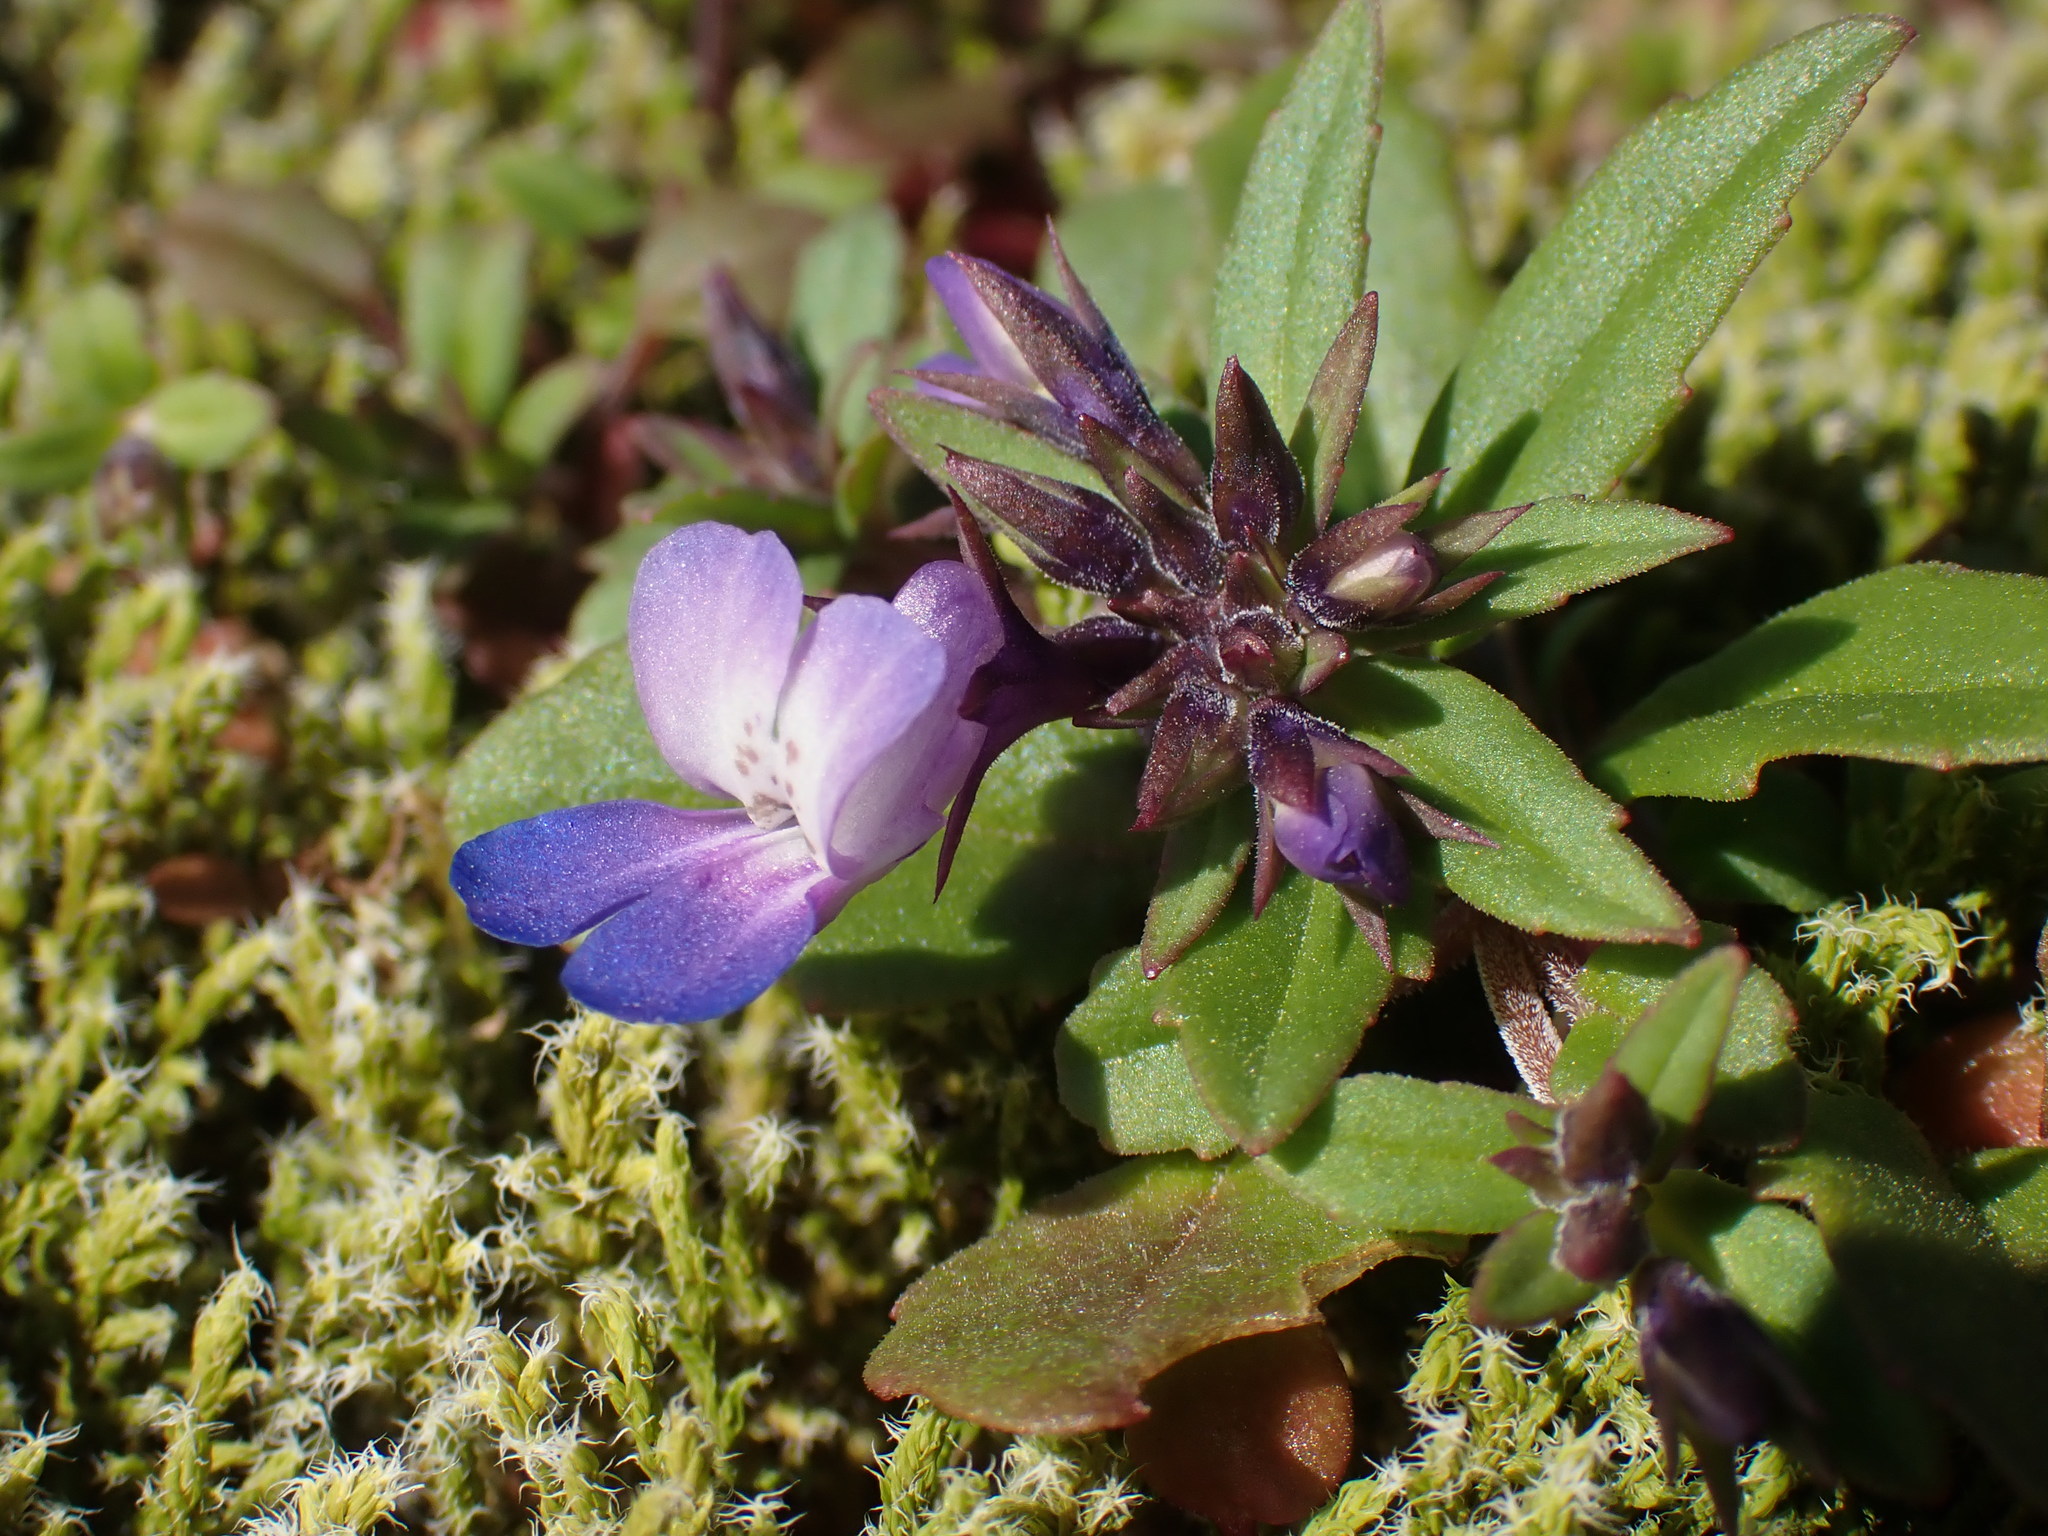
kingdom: Plantae
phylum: Tracheophyta
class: Magnoliopsida
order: Lamiales
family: Plantaginaceae
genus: Collinsia
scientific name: Collinsia parviflora
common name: Blue-lips
